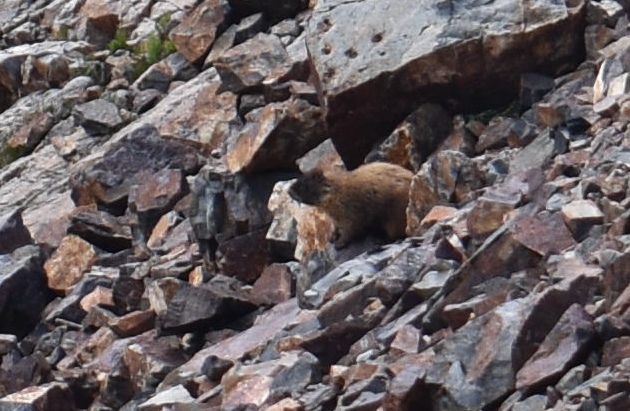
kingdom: Animalia
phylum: Chordata
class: Mammalia
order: Rodentia
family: Sciuridae
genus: Marmota
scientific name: Marmota flaviventris
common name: Yellow-bellied marmot
